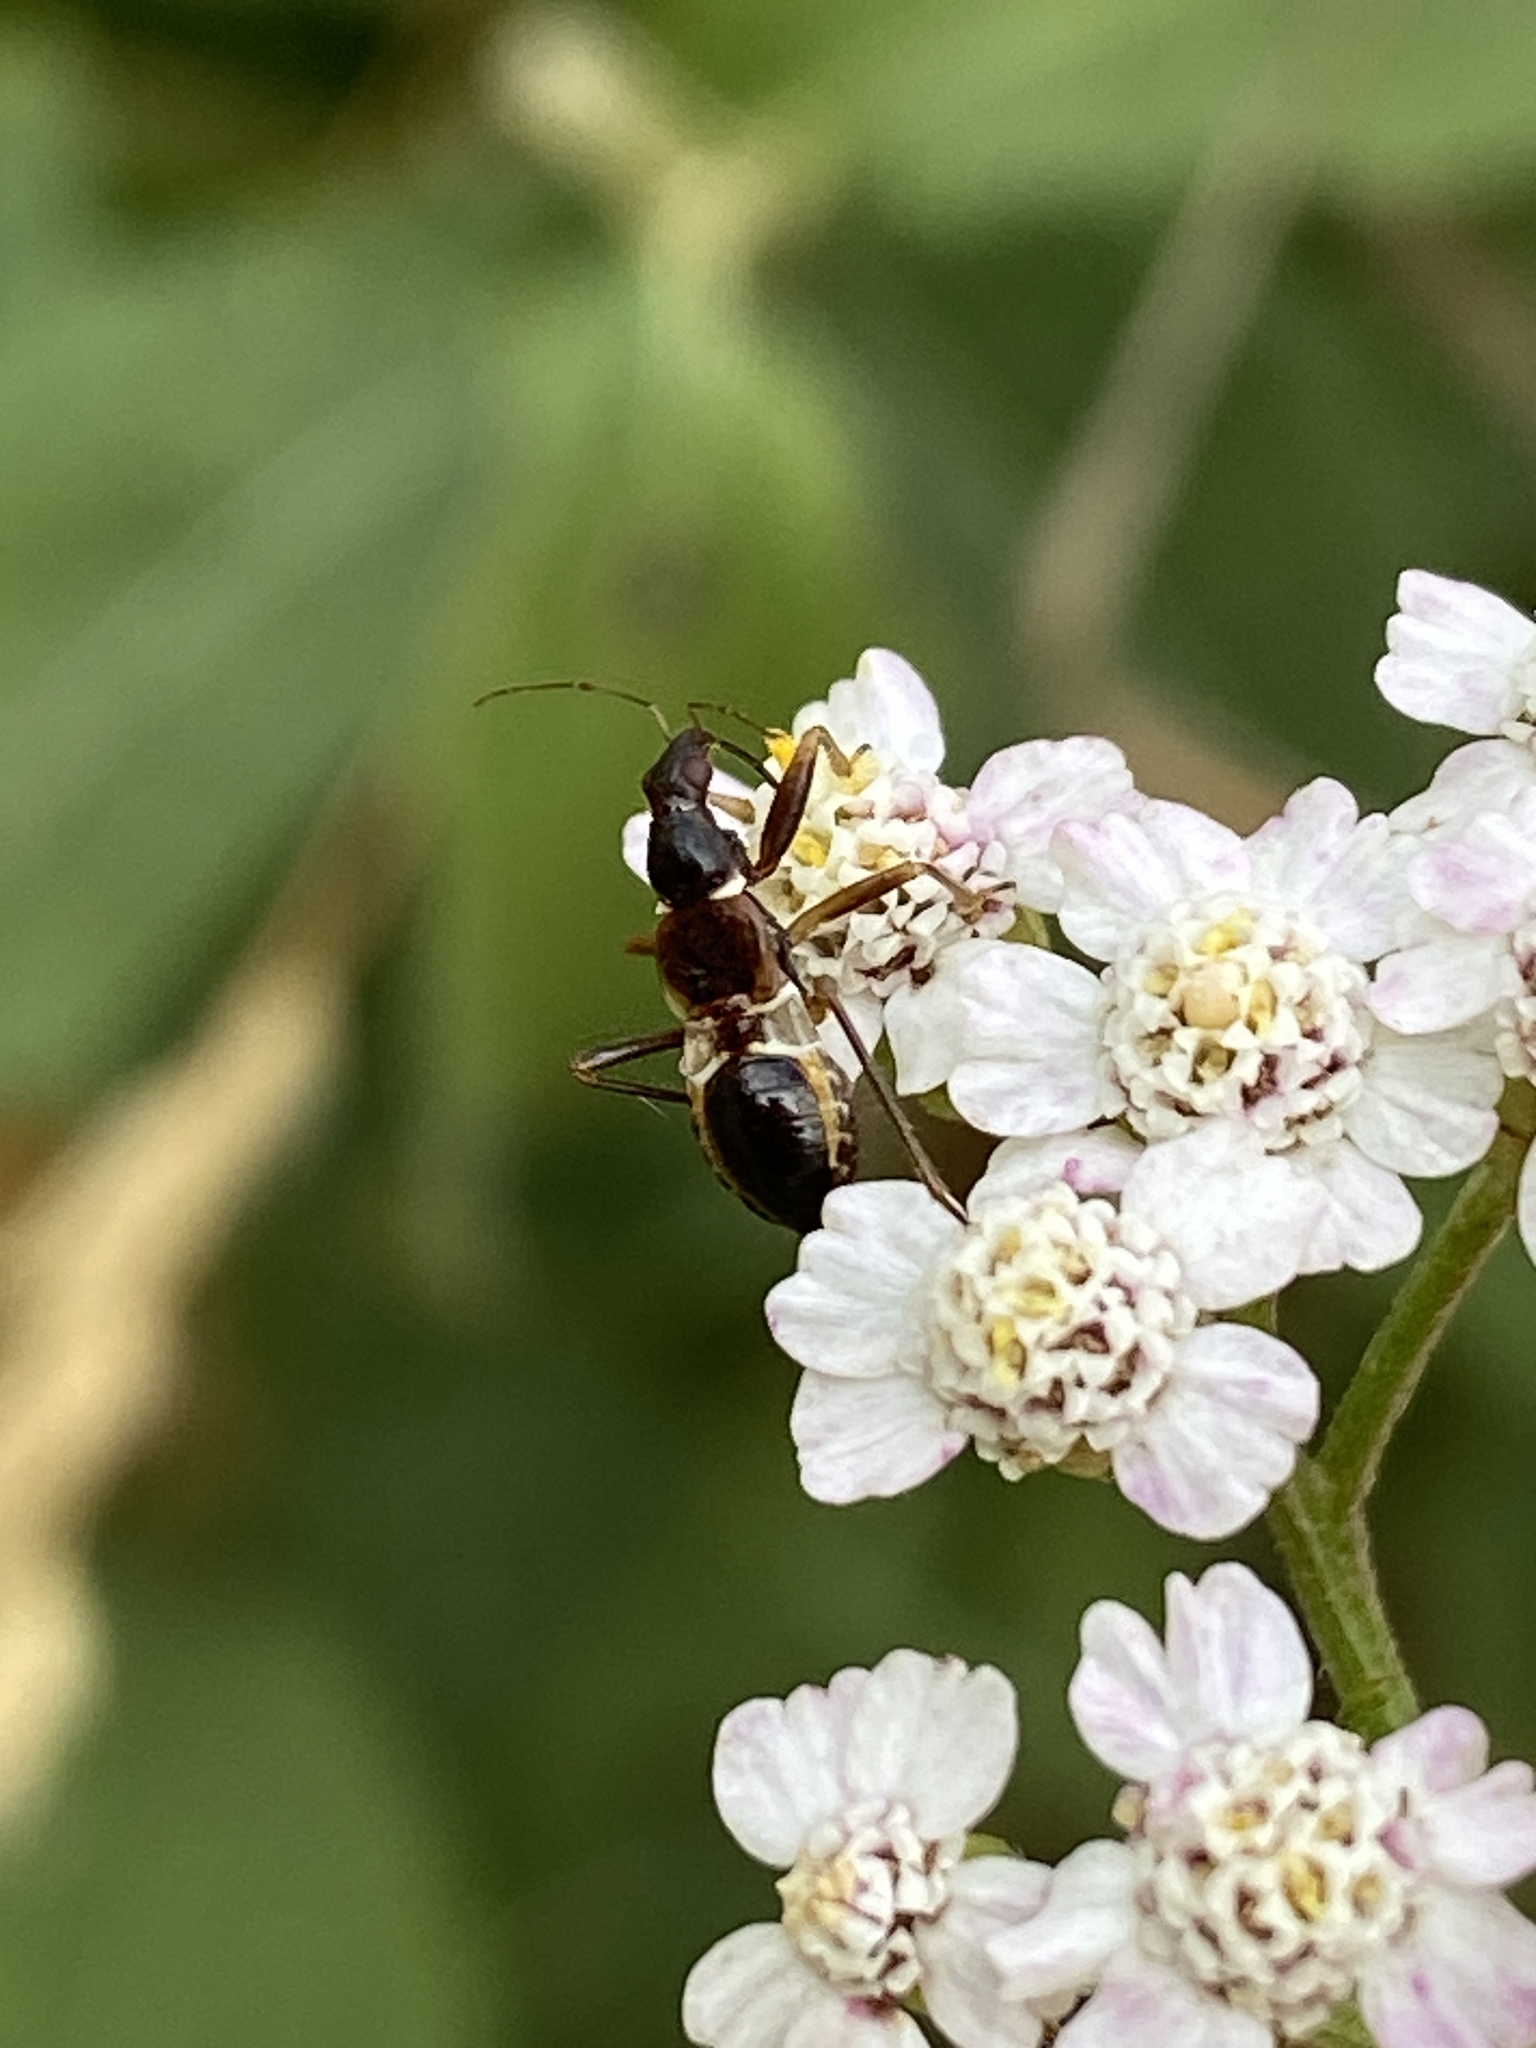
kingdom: Animalia
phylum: Arthropoda
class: Insecta
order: Hemiptera
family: Nabidae
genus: Himacerus
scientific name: Himacerus mirmicoides
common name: Ant damsel bug
